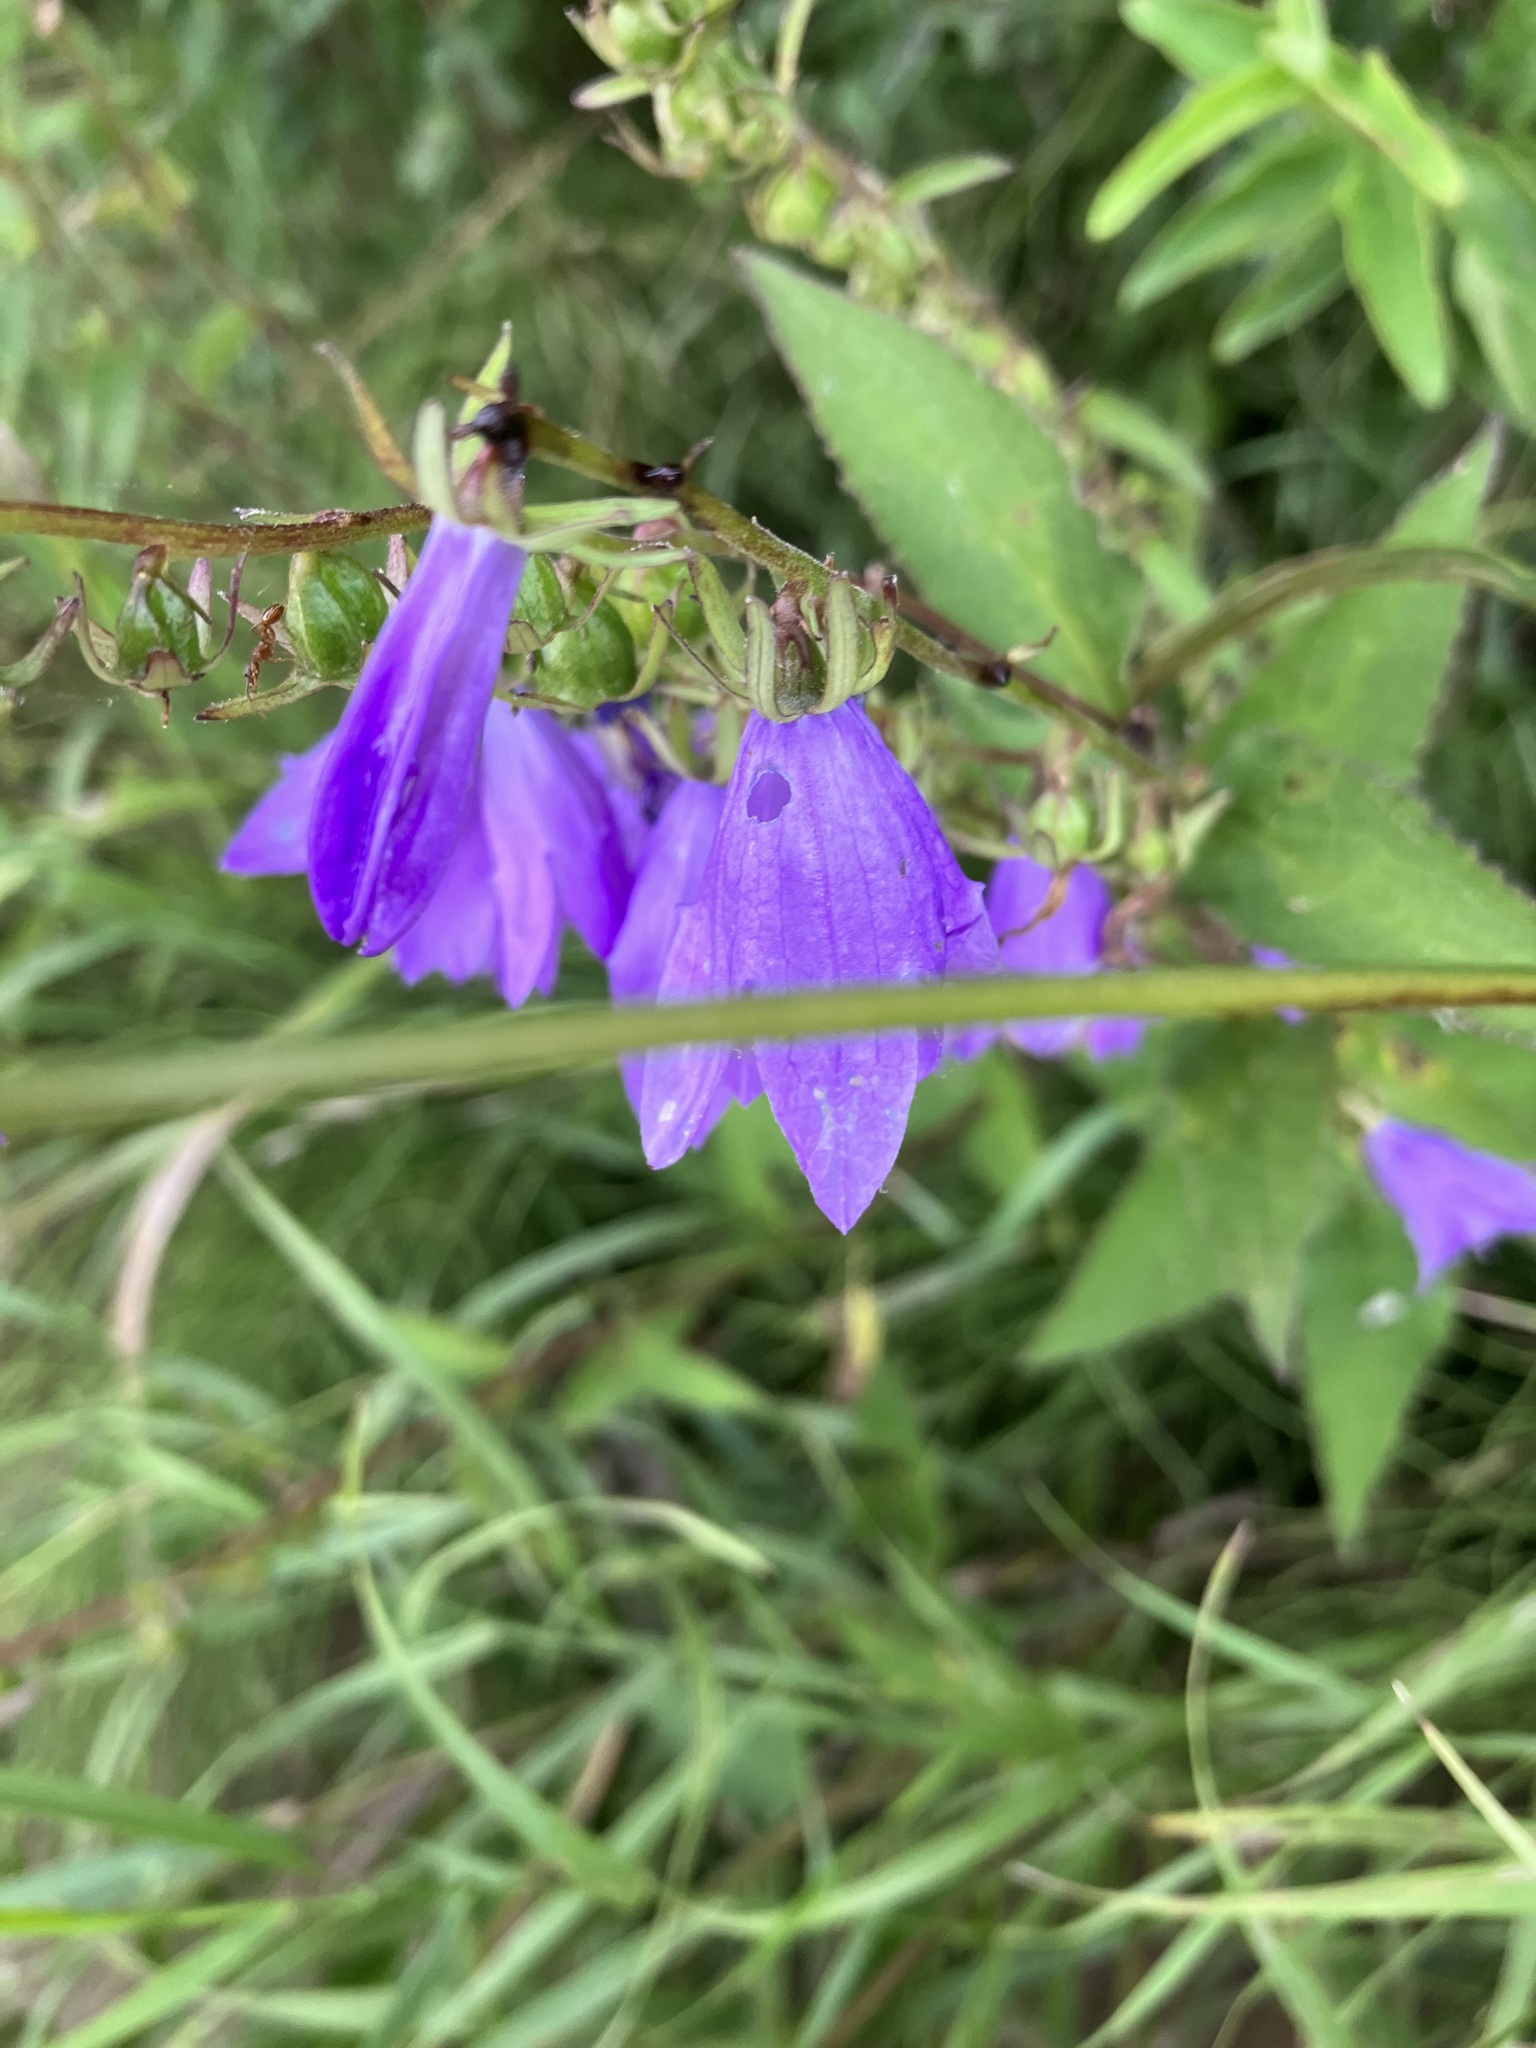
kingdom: Plantae
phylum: Tracheophyta
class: Magnoliopsida
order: Asterales
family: Campanulaceae
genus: Campanula
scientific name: Campanula rapunculoides
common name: Creeping bellflower
